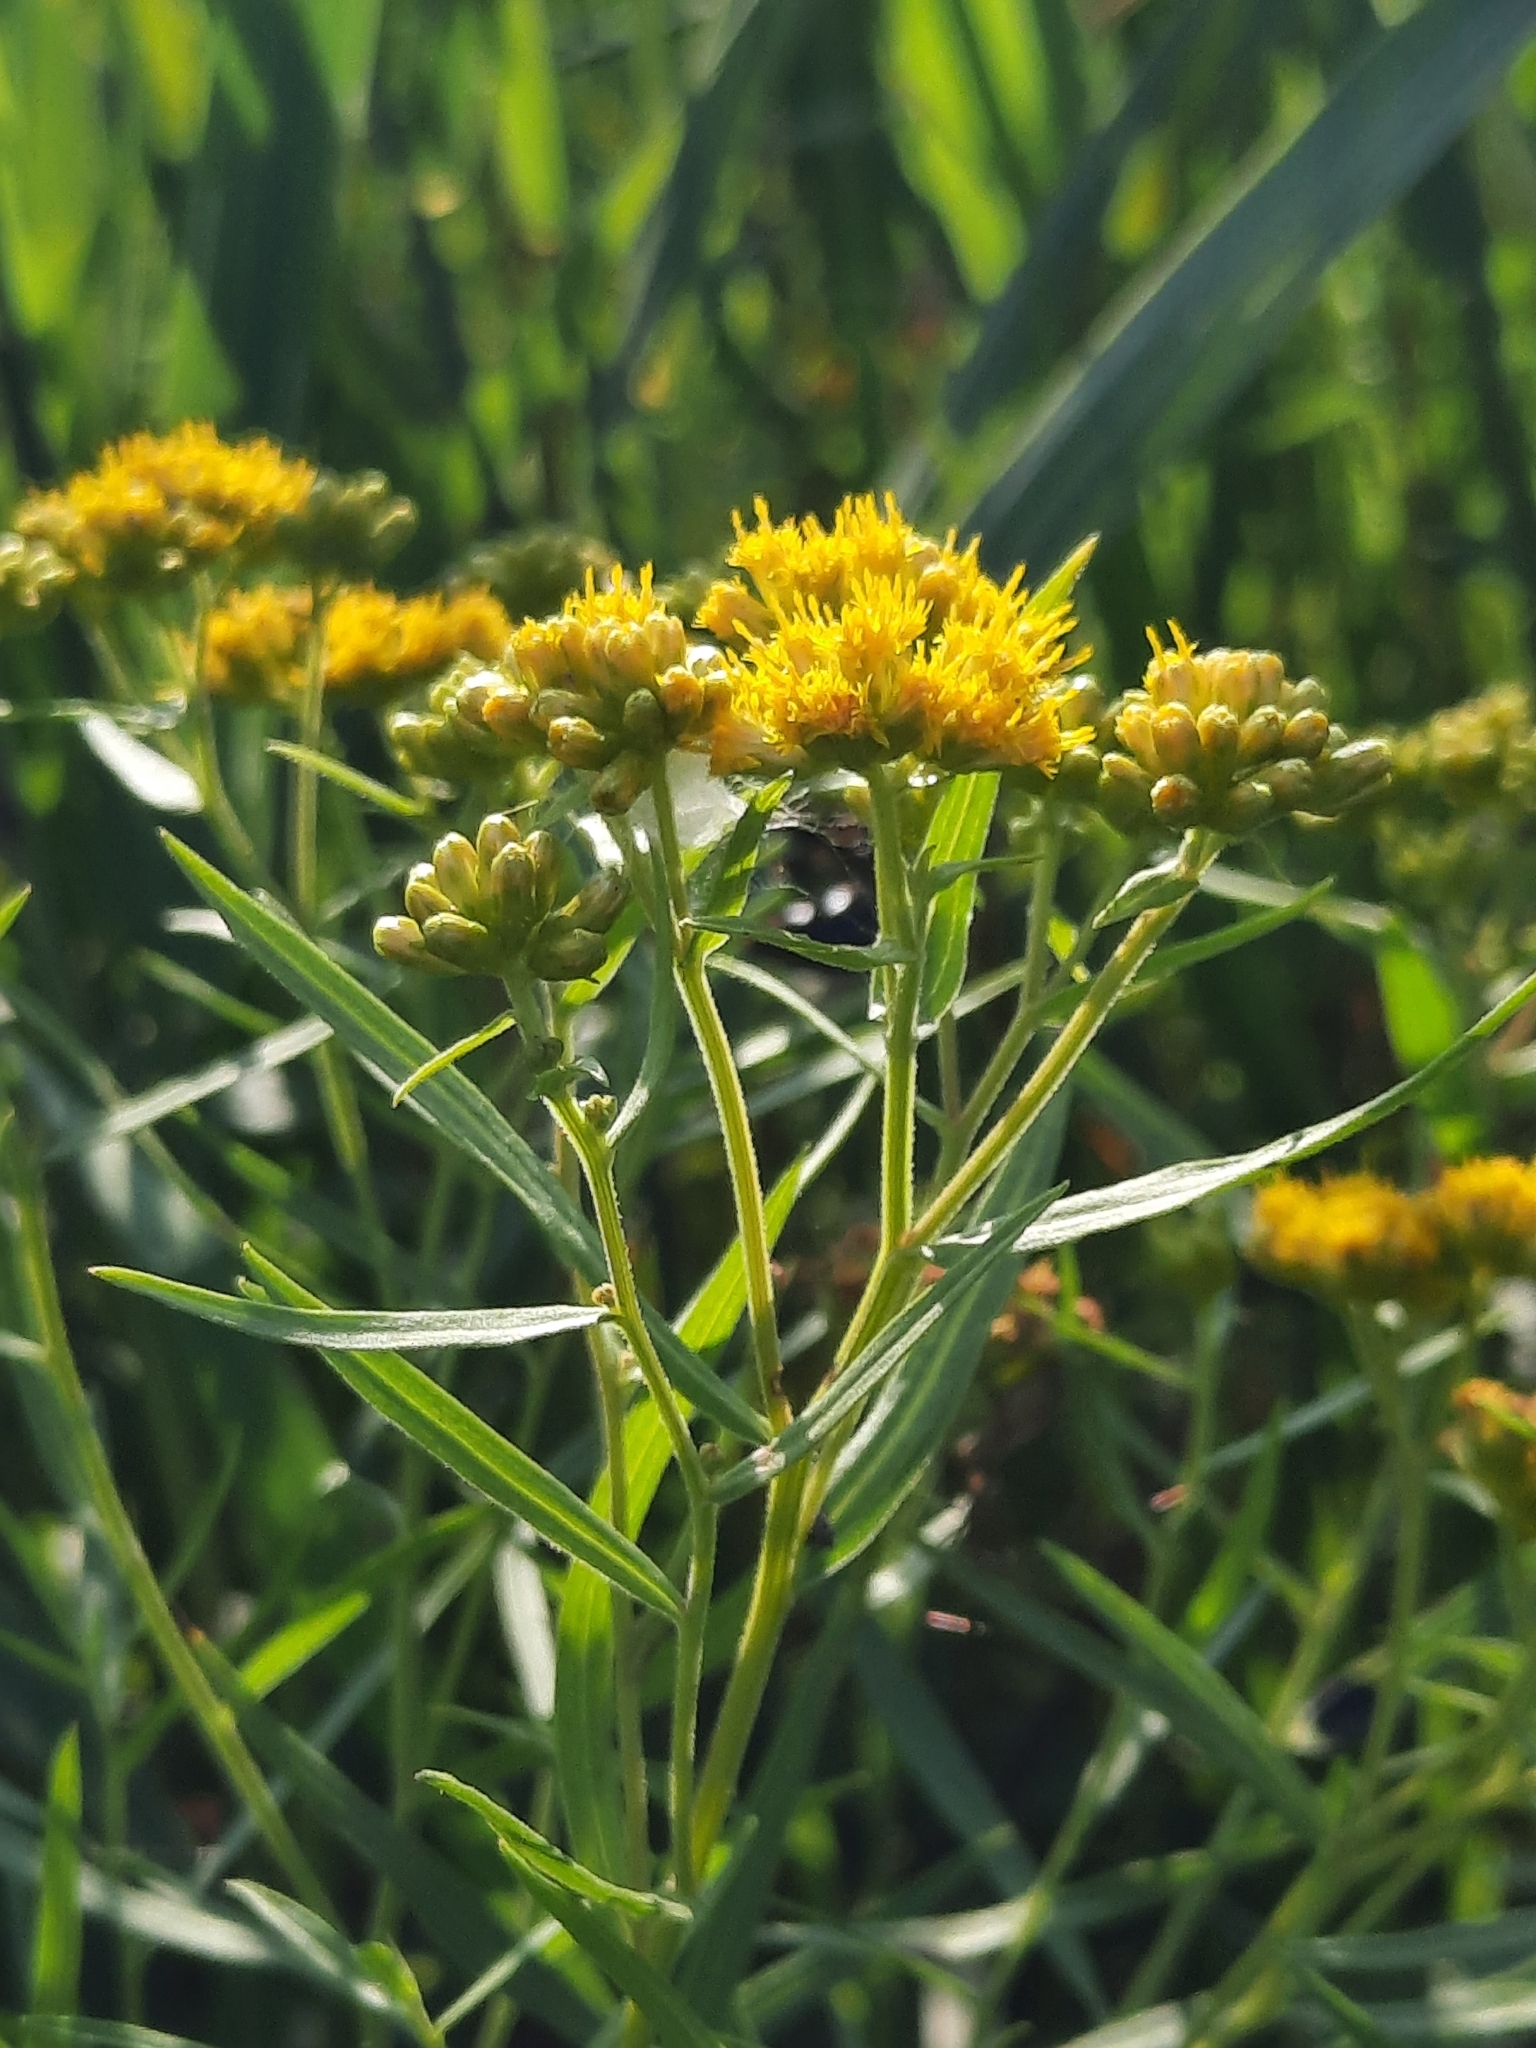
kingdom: Plantae
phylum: Tracheophyta
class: Magnoliopsida
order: Asterales
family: Asteraceae
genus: Euthamia
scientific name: Euthamia graminifolia
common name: Common goldentop
